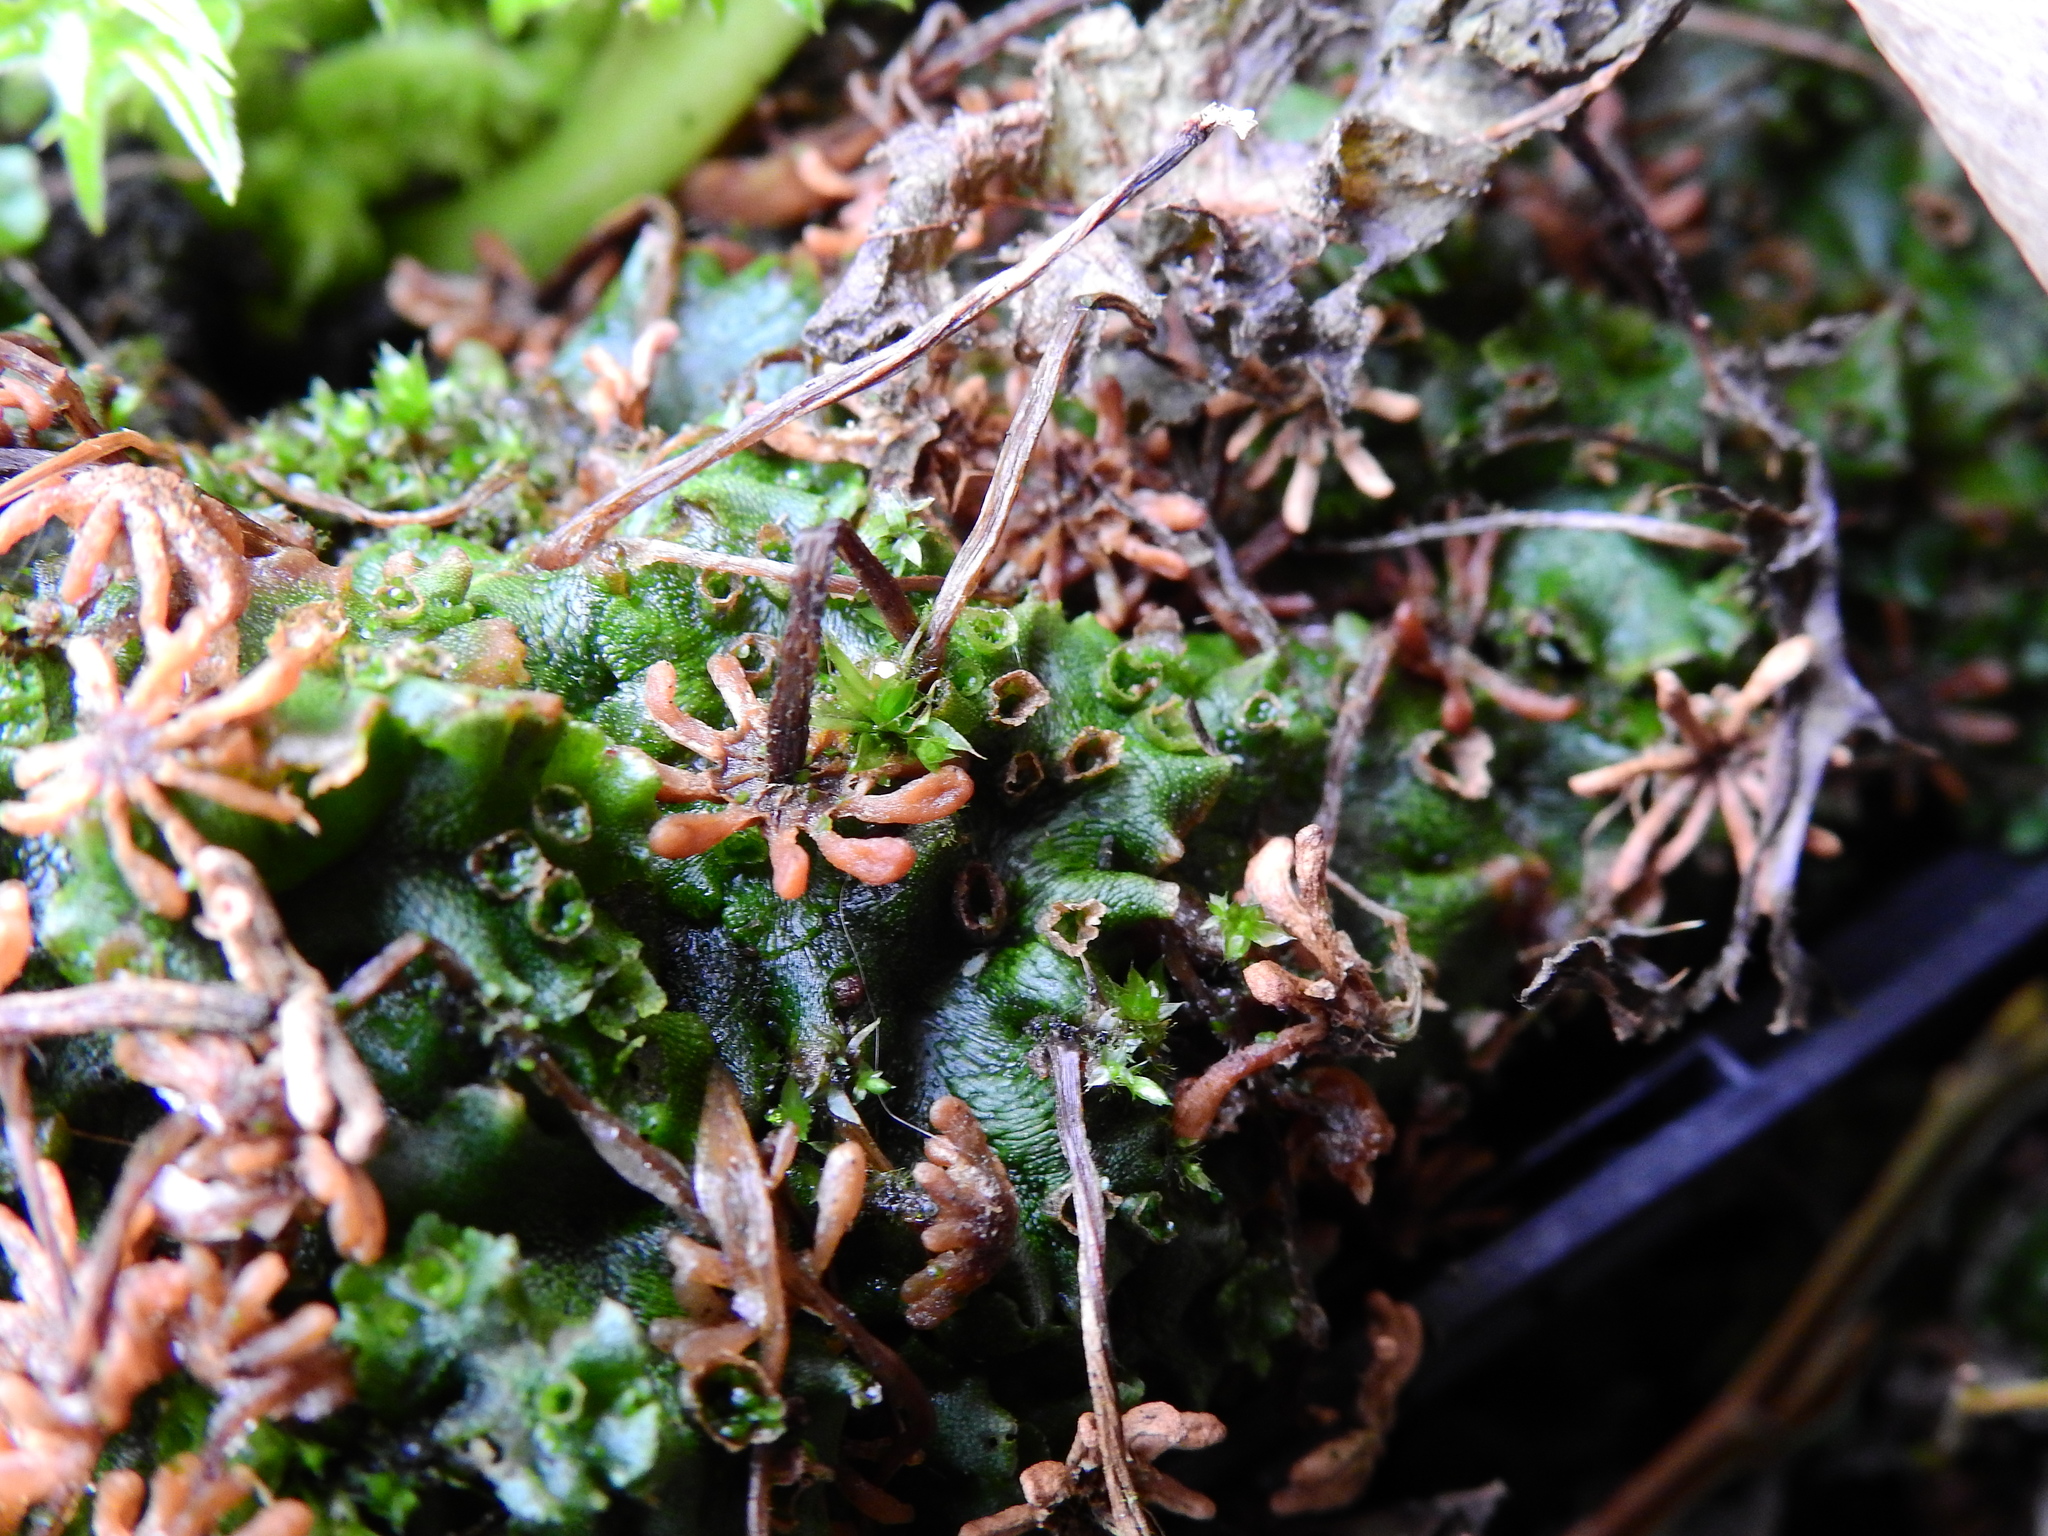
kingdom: Plantae
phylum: Marchantiophyta
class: Marchantiopsida
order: Marchantiales
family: Marchantiaceae
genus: Marchantia
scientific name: Marchantia polymorpha
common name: Common liverwort
